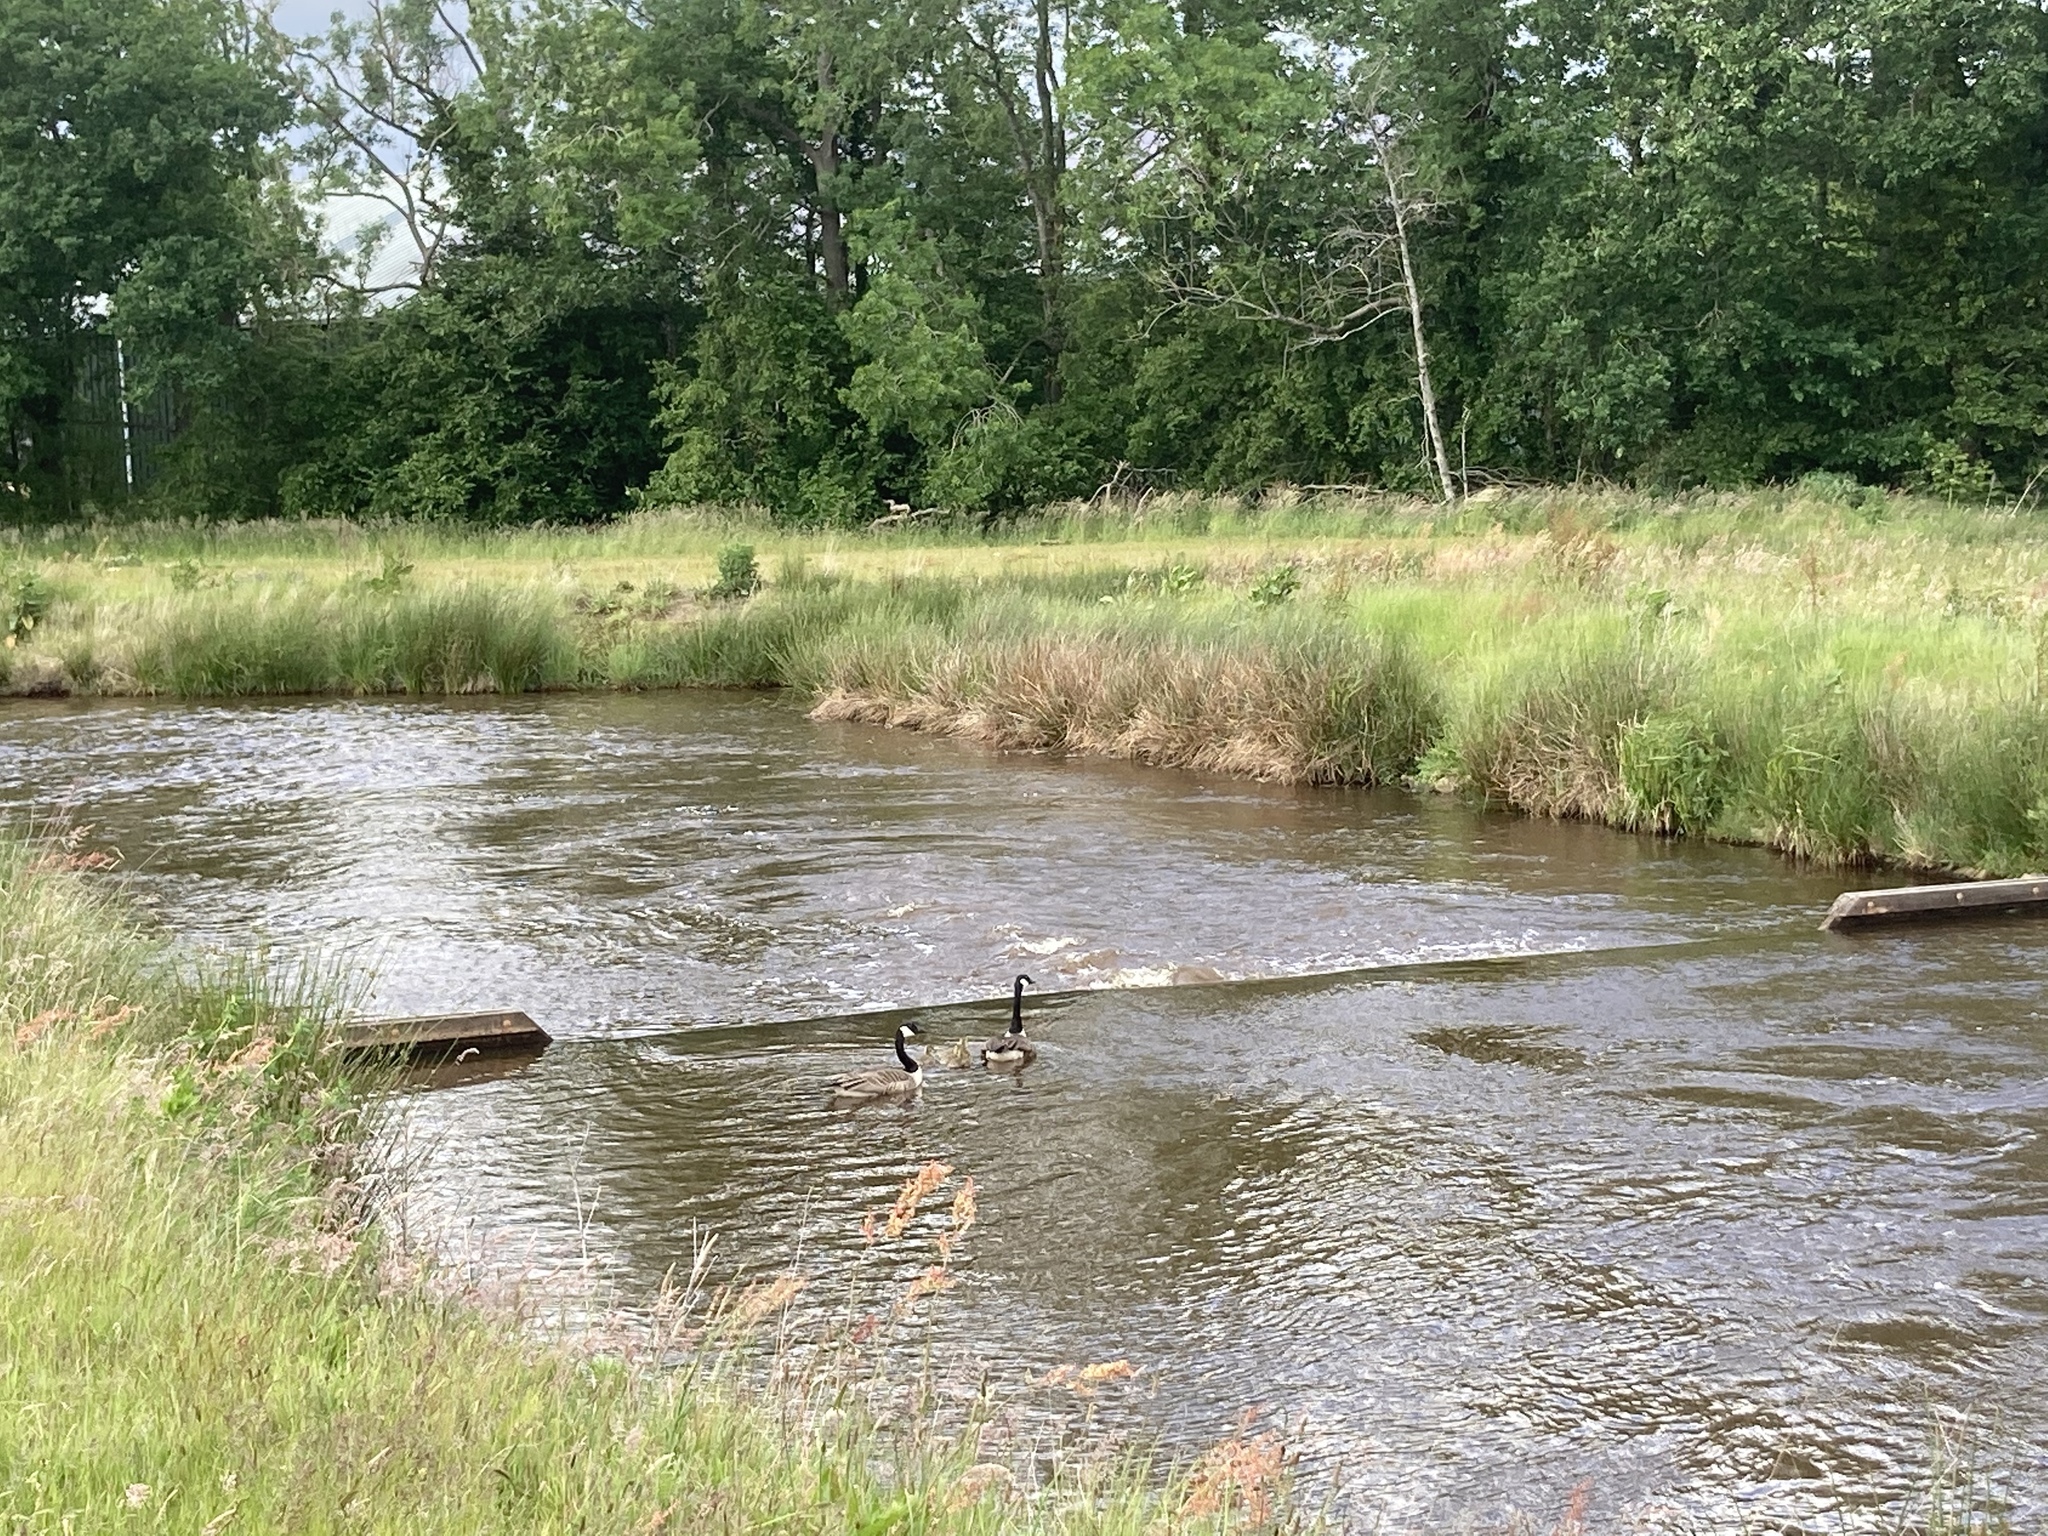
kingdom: Animalia
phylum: Chordata
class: Aves
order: Anseriformes
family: Anatidae
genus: Branta
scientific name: Branta canadensis
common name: Canada goose
